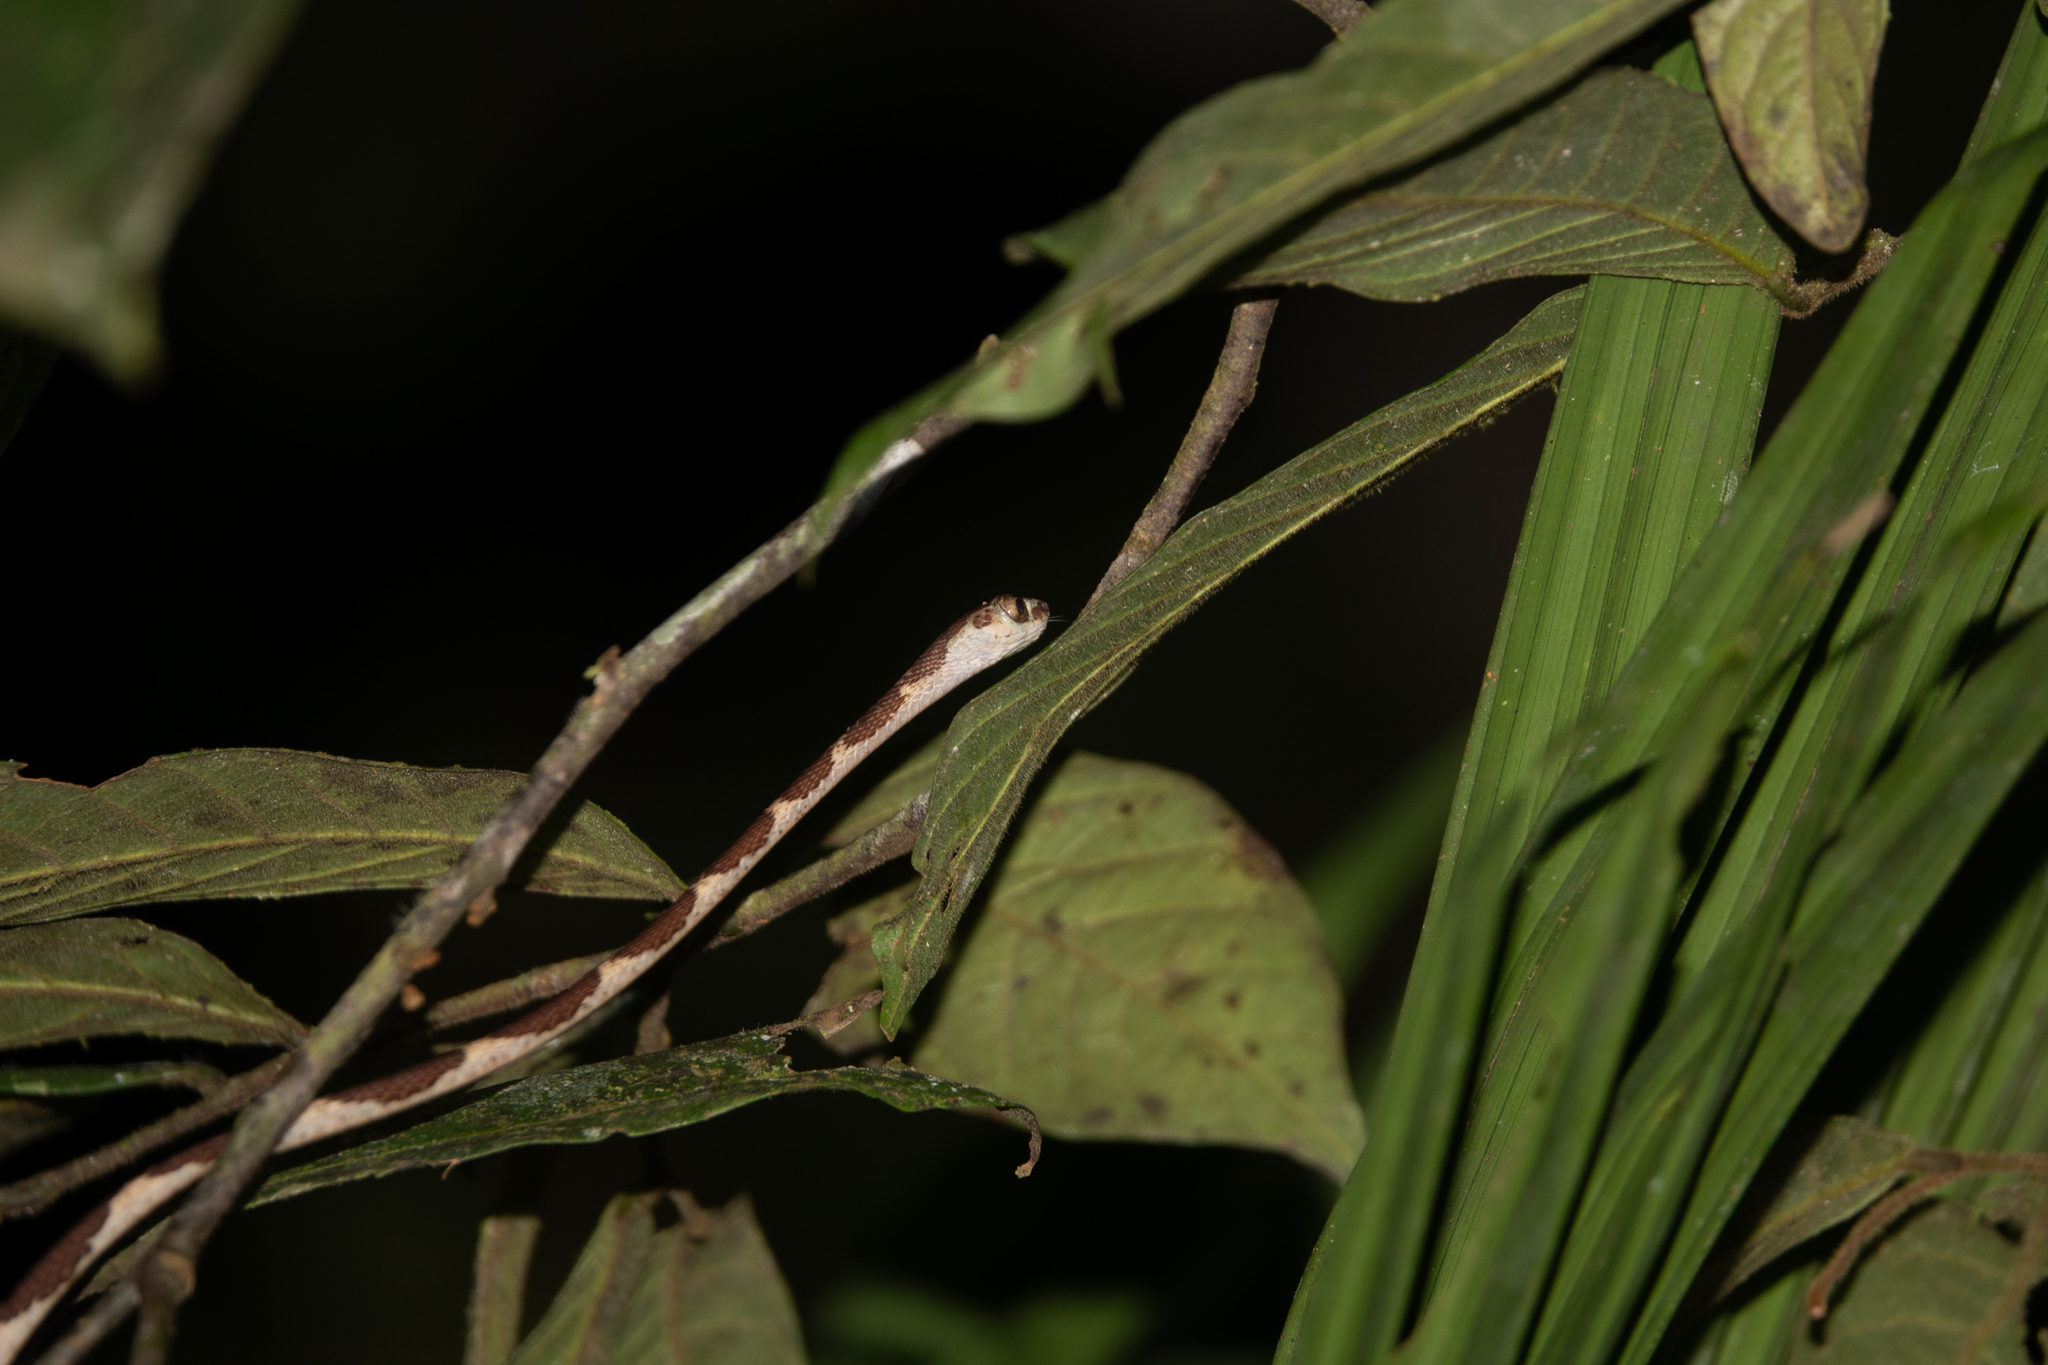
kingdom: Animalia
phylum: Chordata
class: Squamata
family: Colubridae
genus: Imantodes
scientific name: Imantodes cenchoa
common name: Blunthead tree snake
